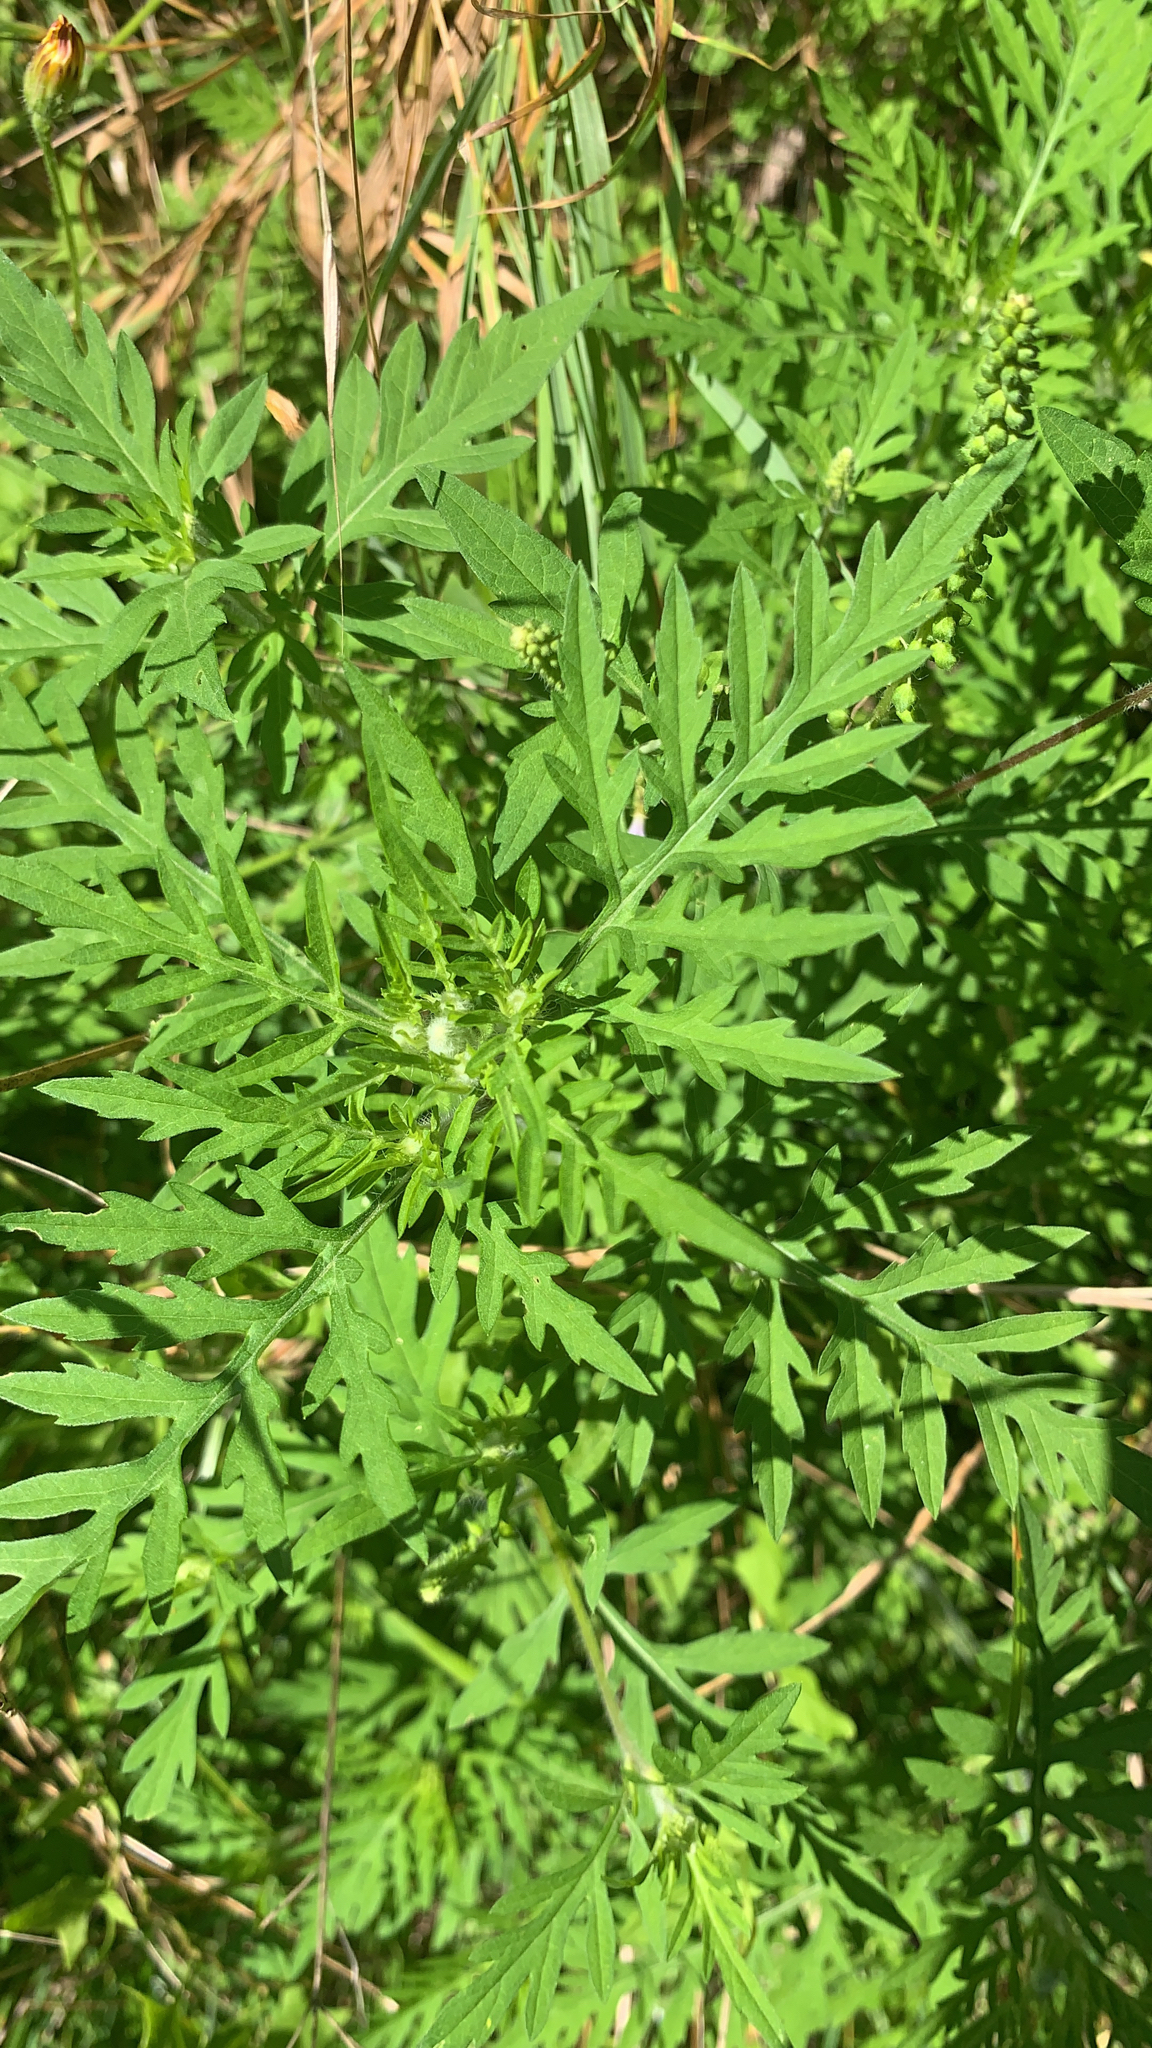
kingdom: Plantae
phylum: Tracheophyta
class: Magnoliopsida
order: Asterales
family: Asteraceae
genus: Ambrosia
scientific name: Ambrosia artemisiifolia
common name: Annual ragweed
